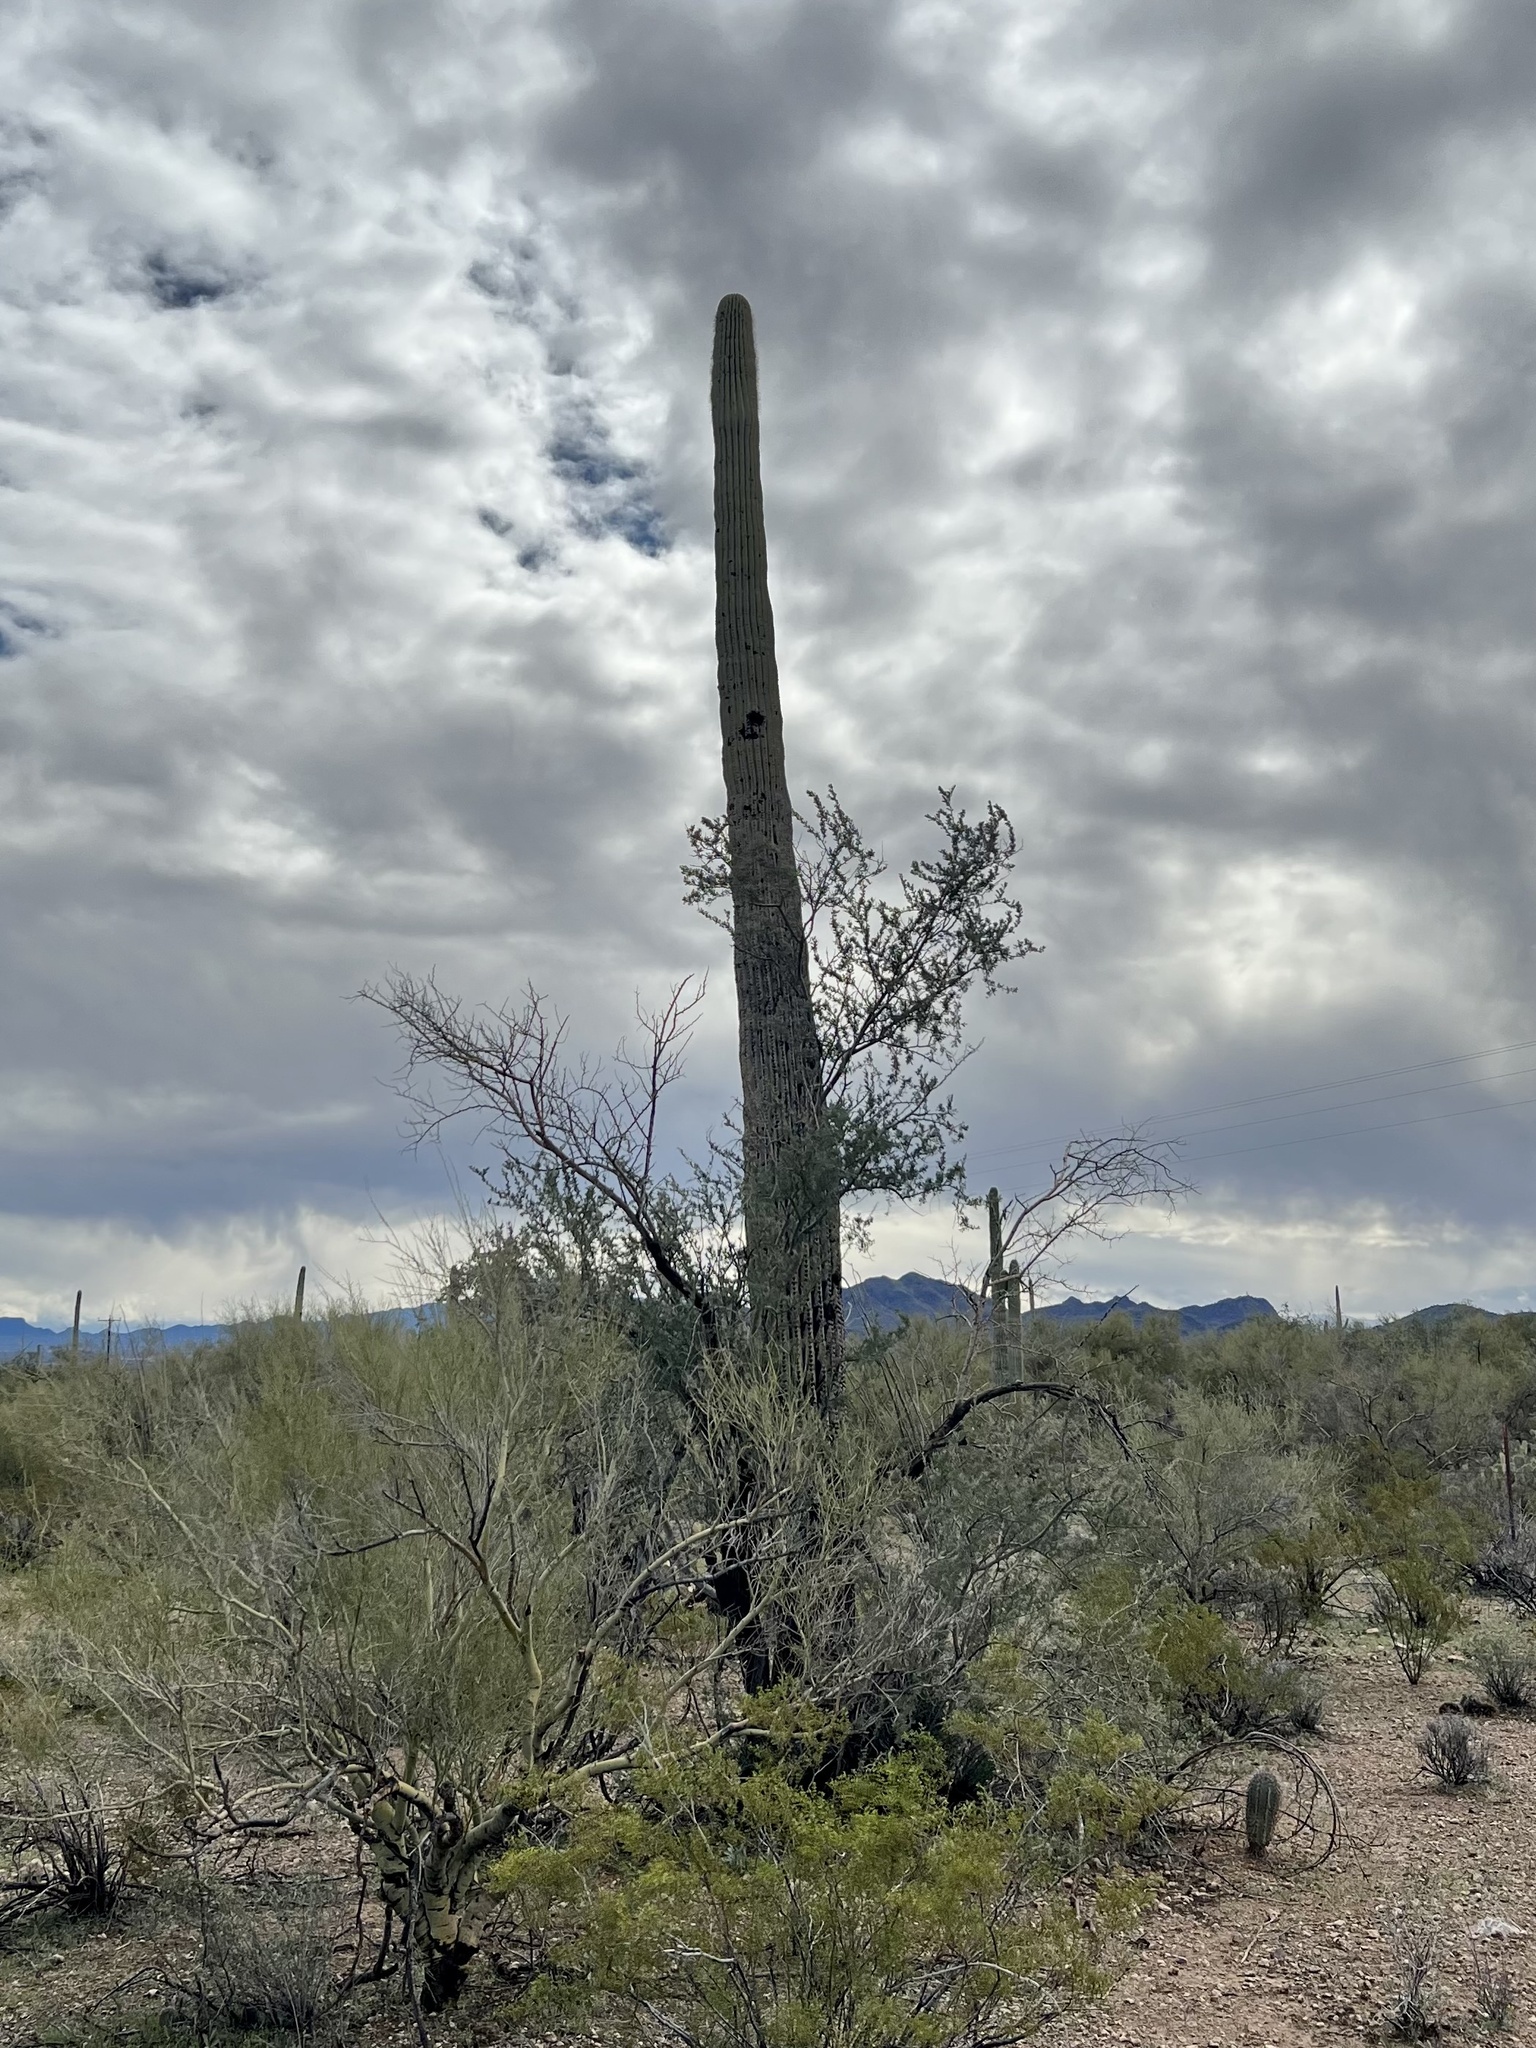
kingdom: Plantae
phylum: Tracheophyta
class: Magnoliopsida
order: Caryophyllales
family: Cactaceae
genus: Carnegiea
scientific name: Carnegiea gigantea
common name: Saguaro
